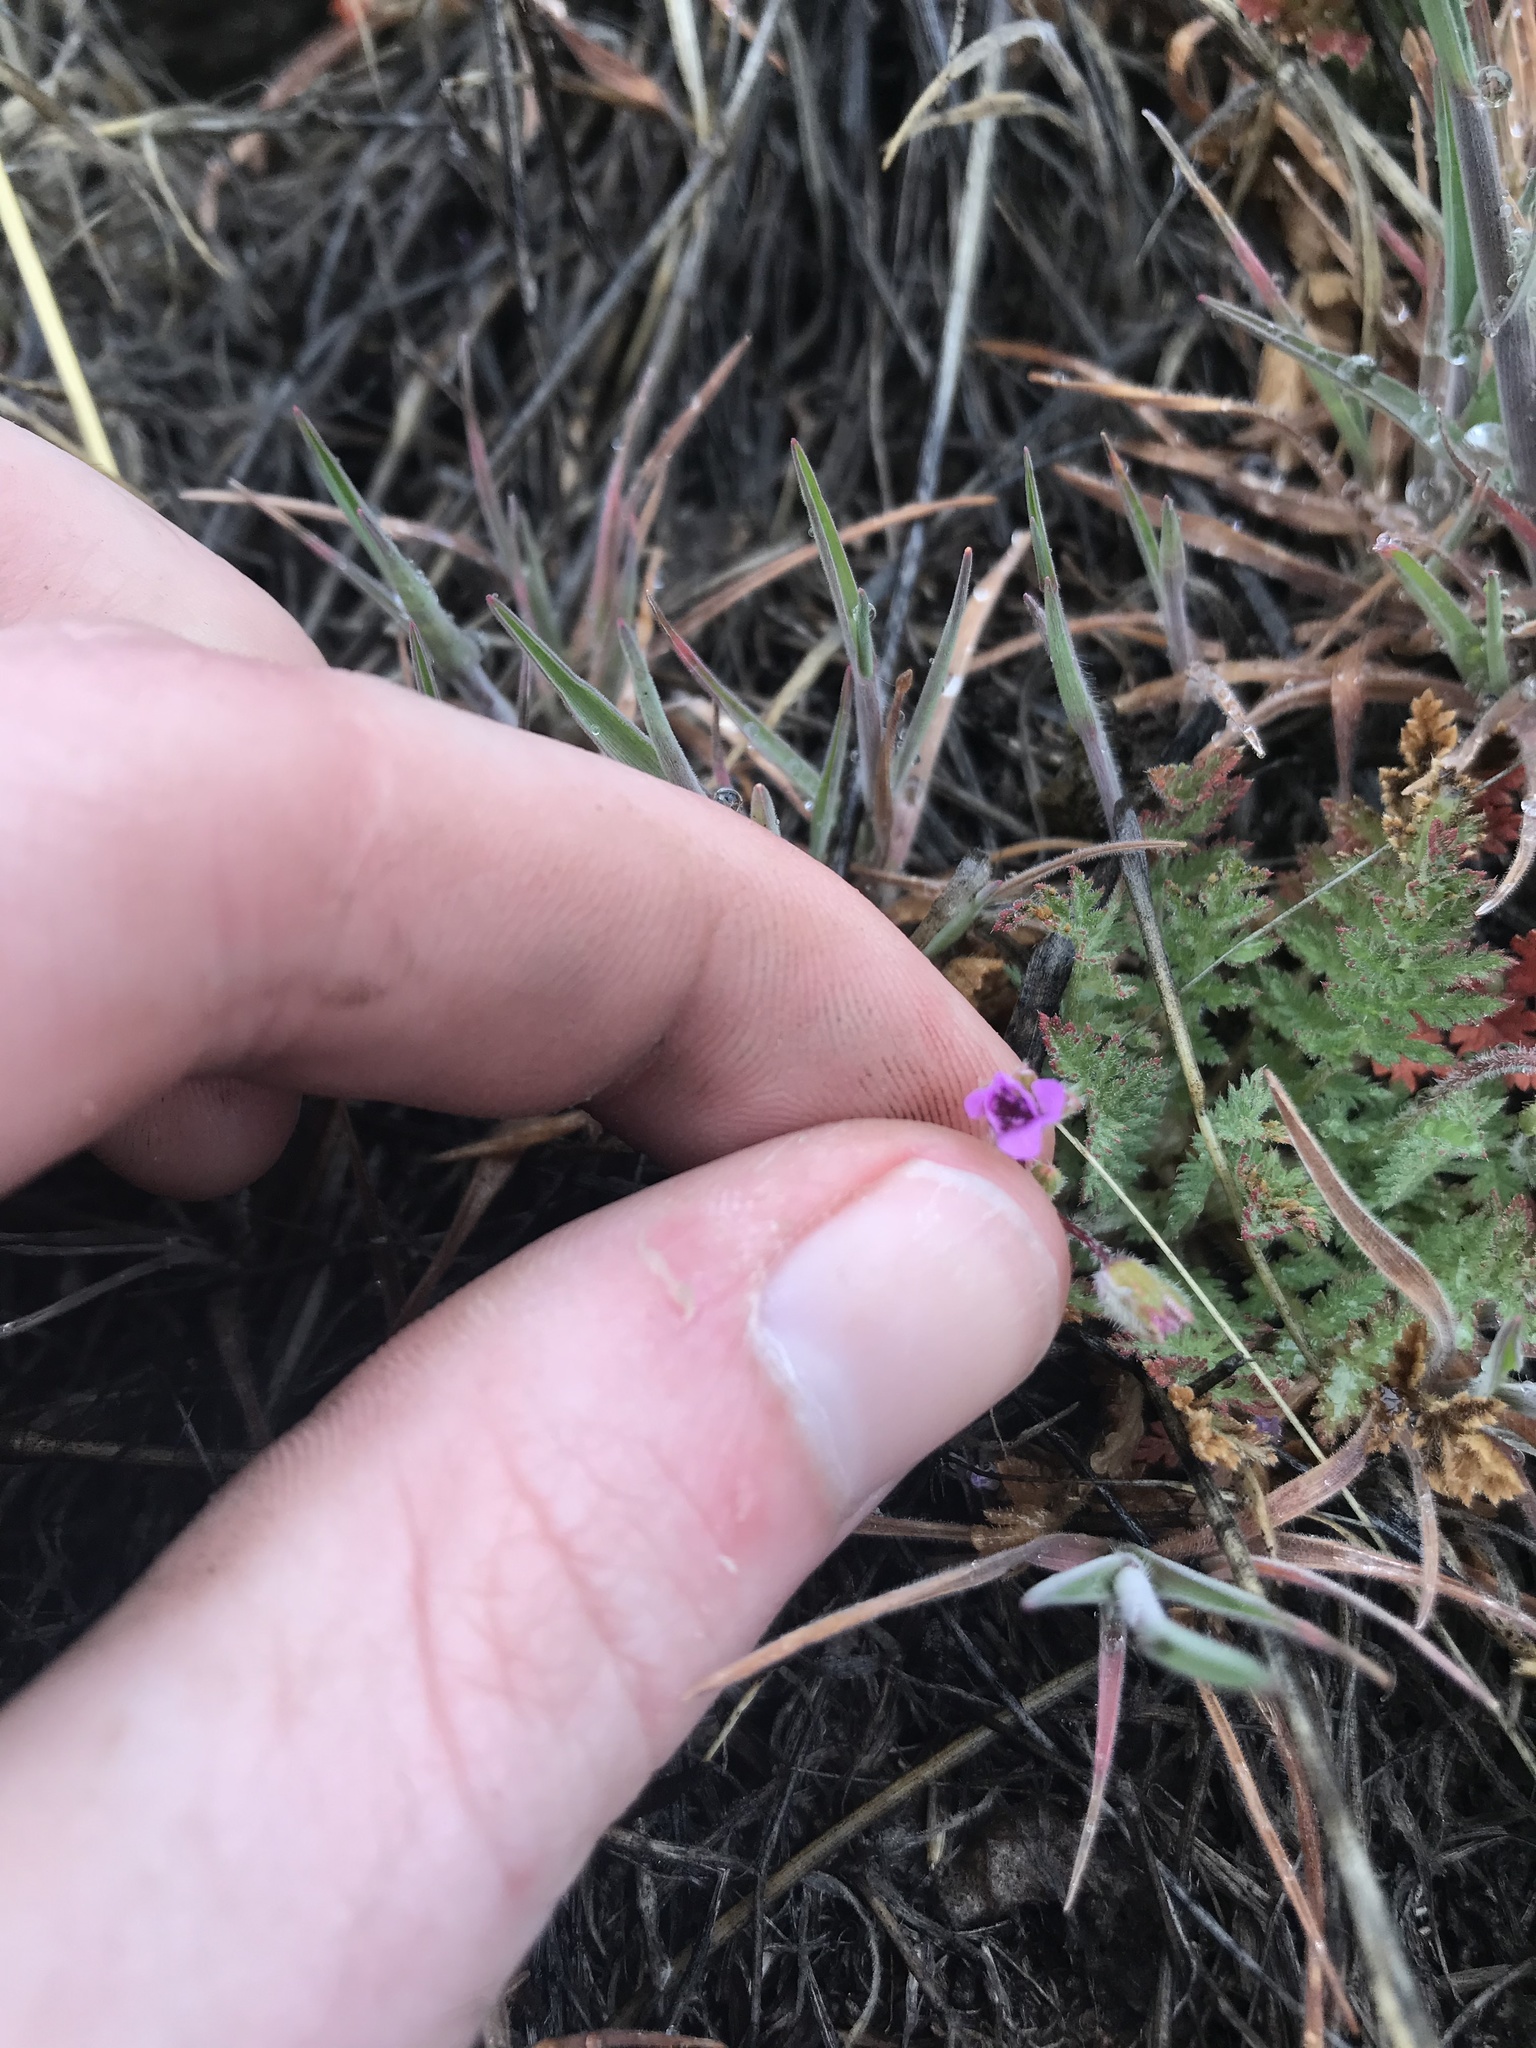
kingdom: Plantae
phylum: Tracheophyta
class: Magnoliopsida
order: Geraniales
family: Geraniaceae
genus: Erodium
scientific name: Erodium cicutarium
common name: Common stork's-bill
